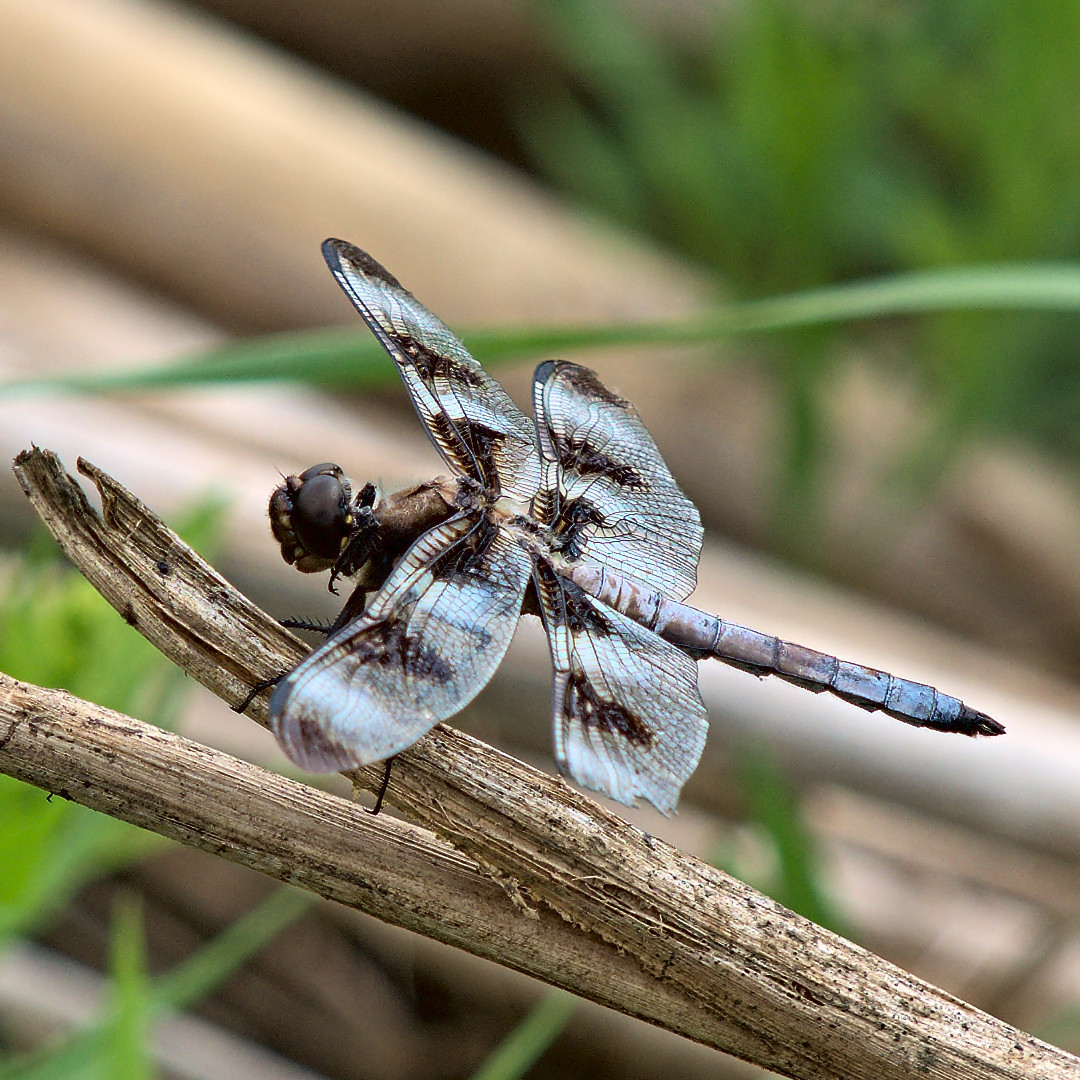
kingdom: Animalia
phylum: Arthropoda
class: Insecta
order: Odonata
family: Libellulidae
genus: Libellula
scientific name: Libellula pulchella
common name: Twelve-spotted skimmer
